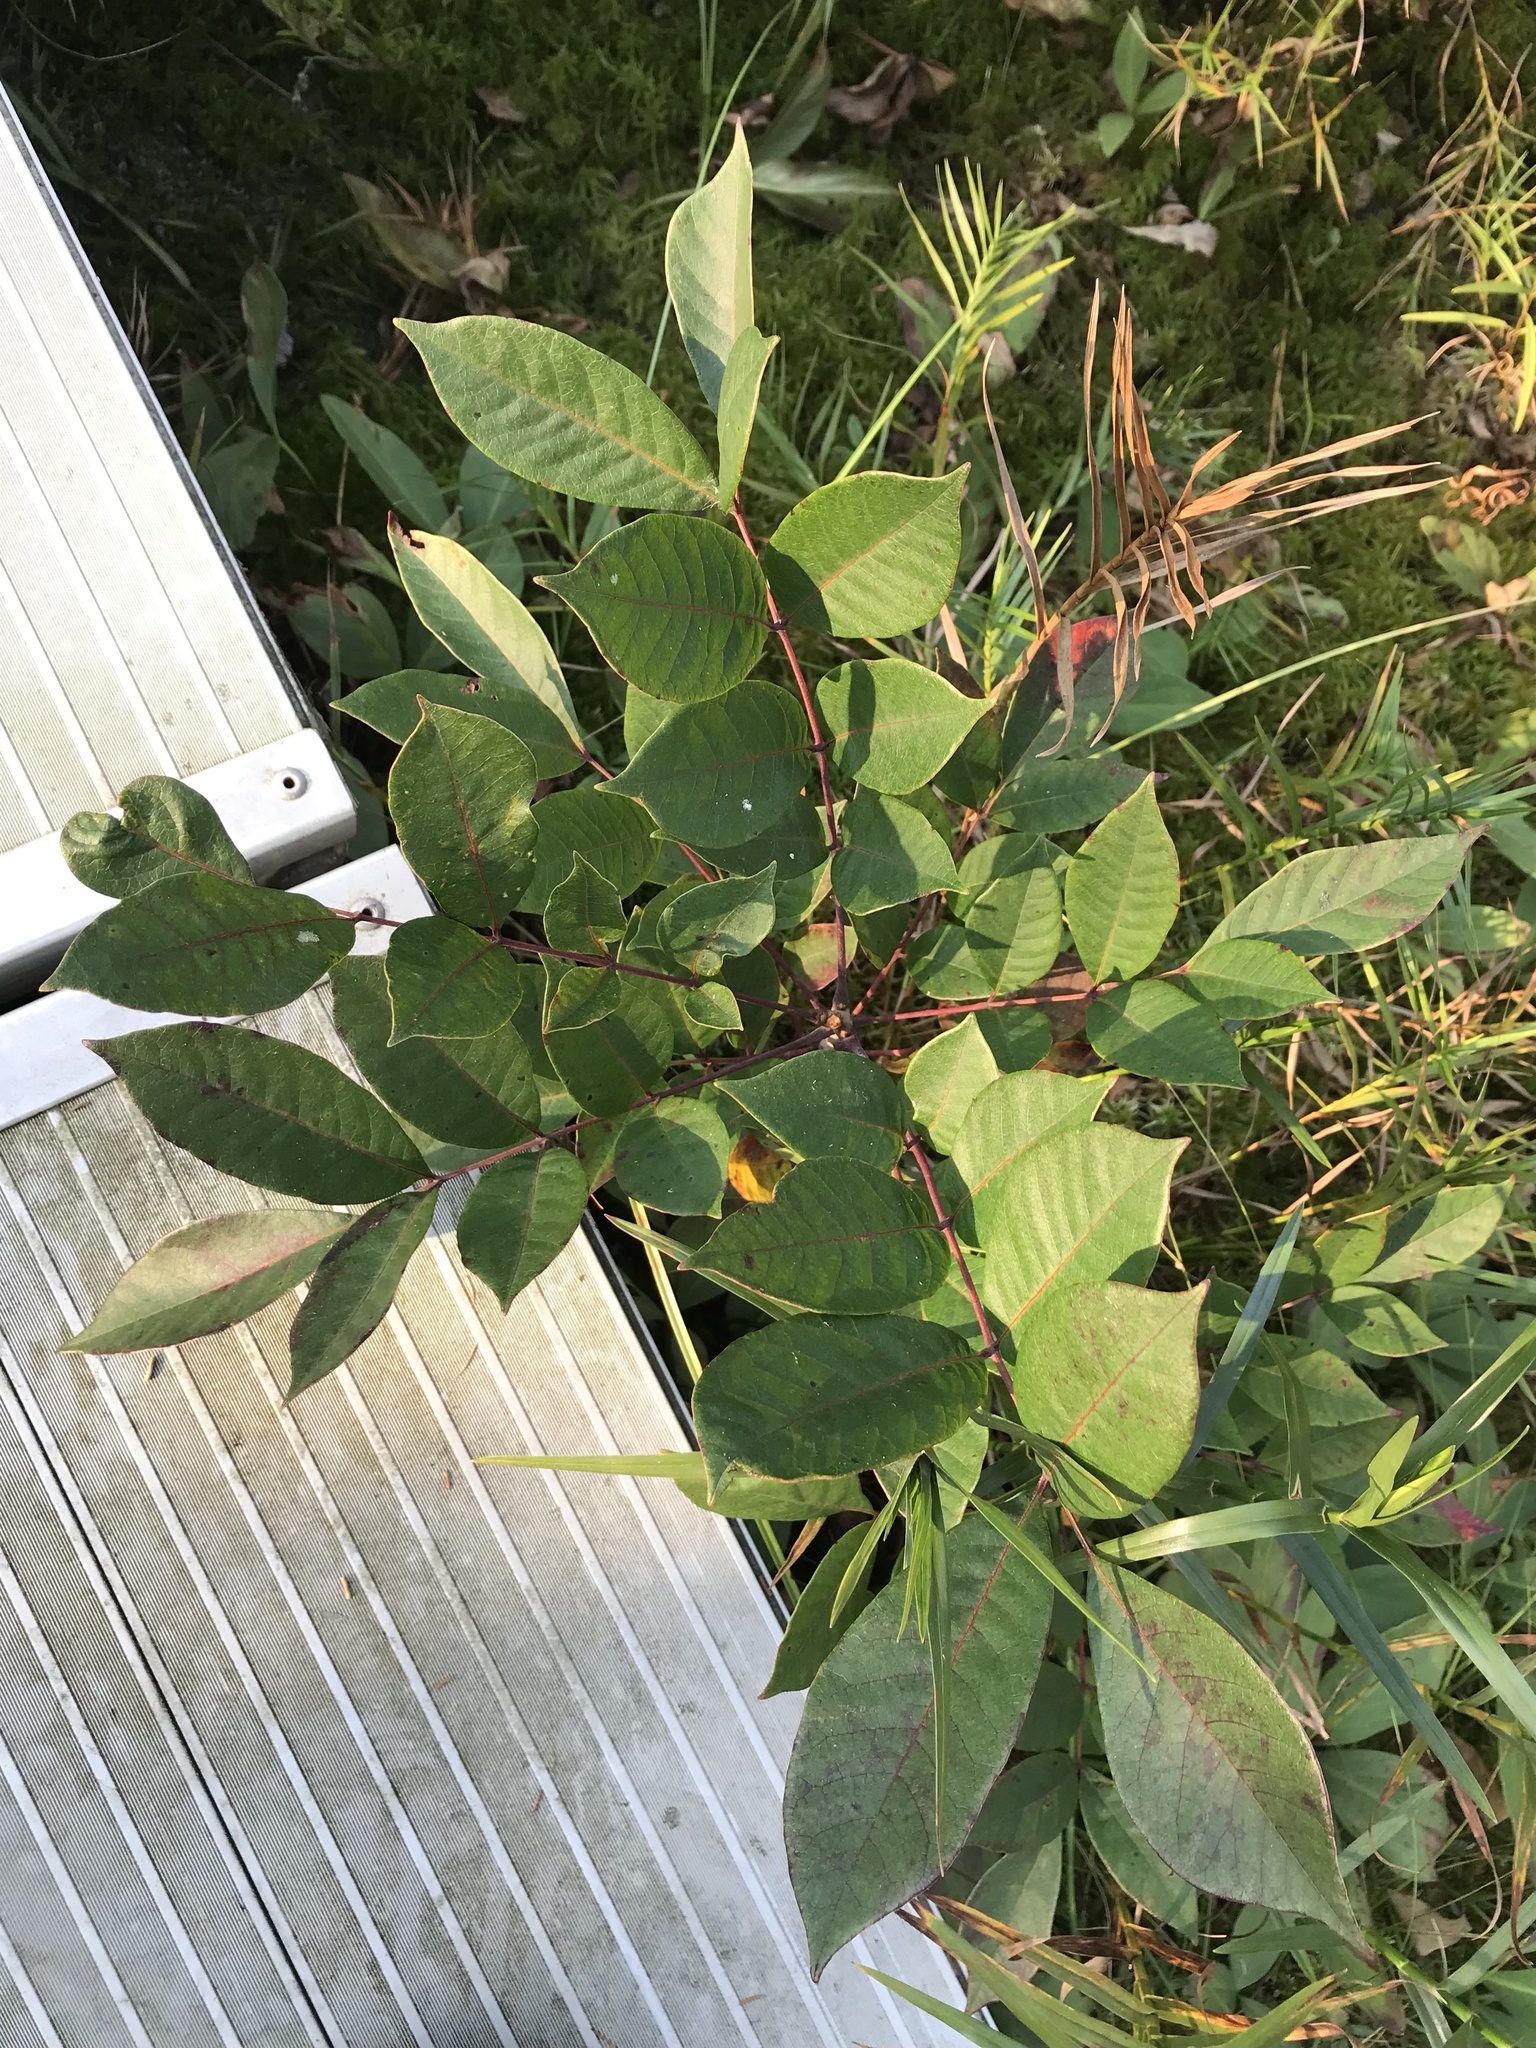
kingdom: Plantae
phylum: Tracheophyta
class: Magnoliopsida
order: Sapindales
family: Anacardiaceae
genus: Toxicodendron
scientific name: Toxicodendron vernix
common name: Poison sumac
